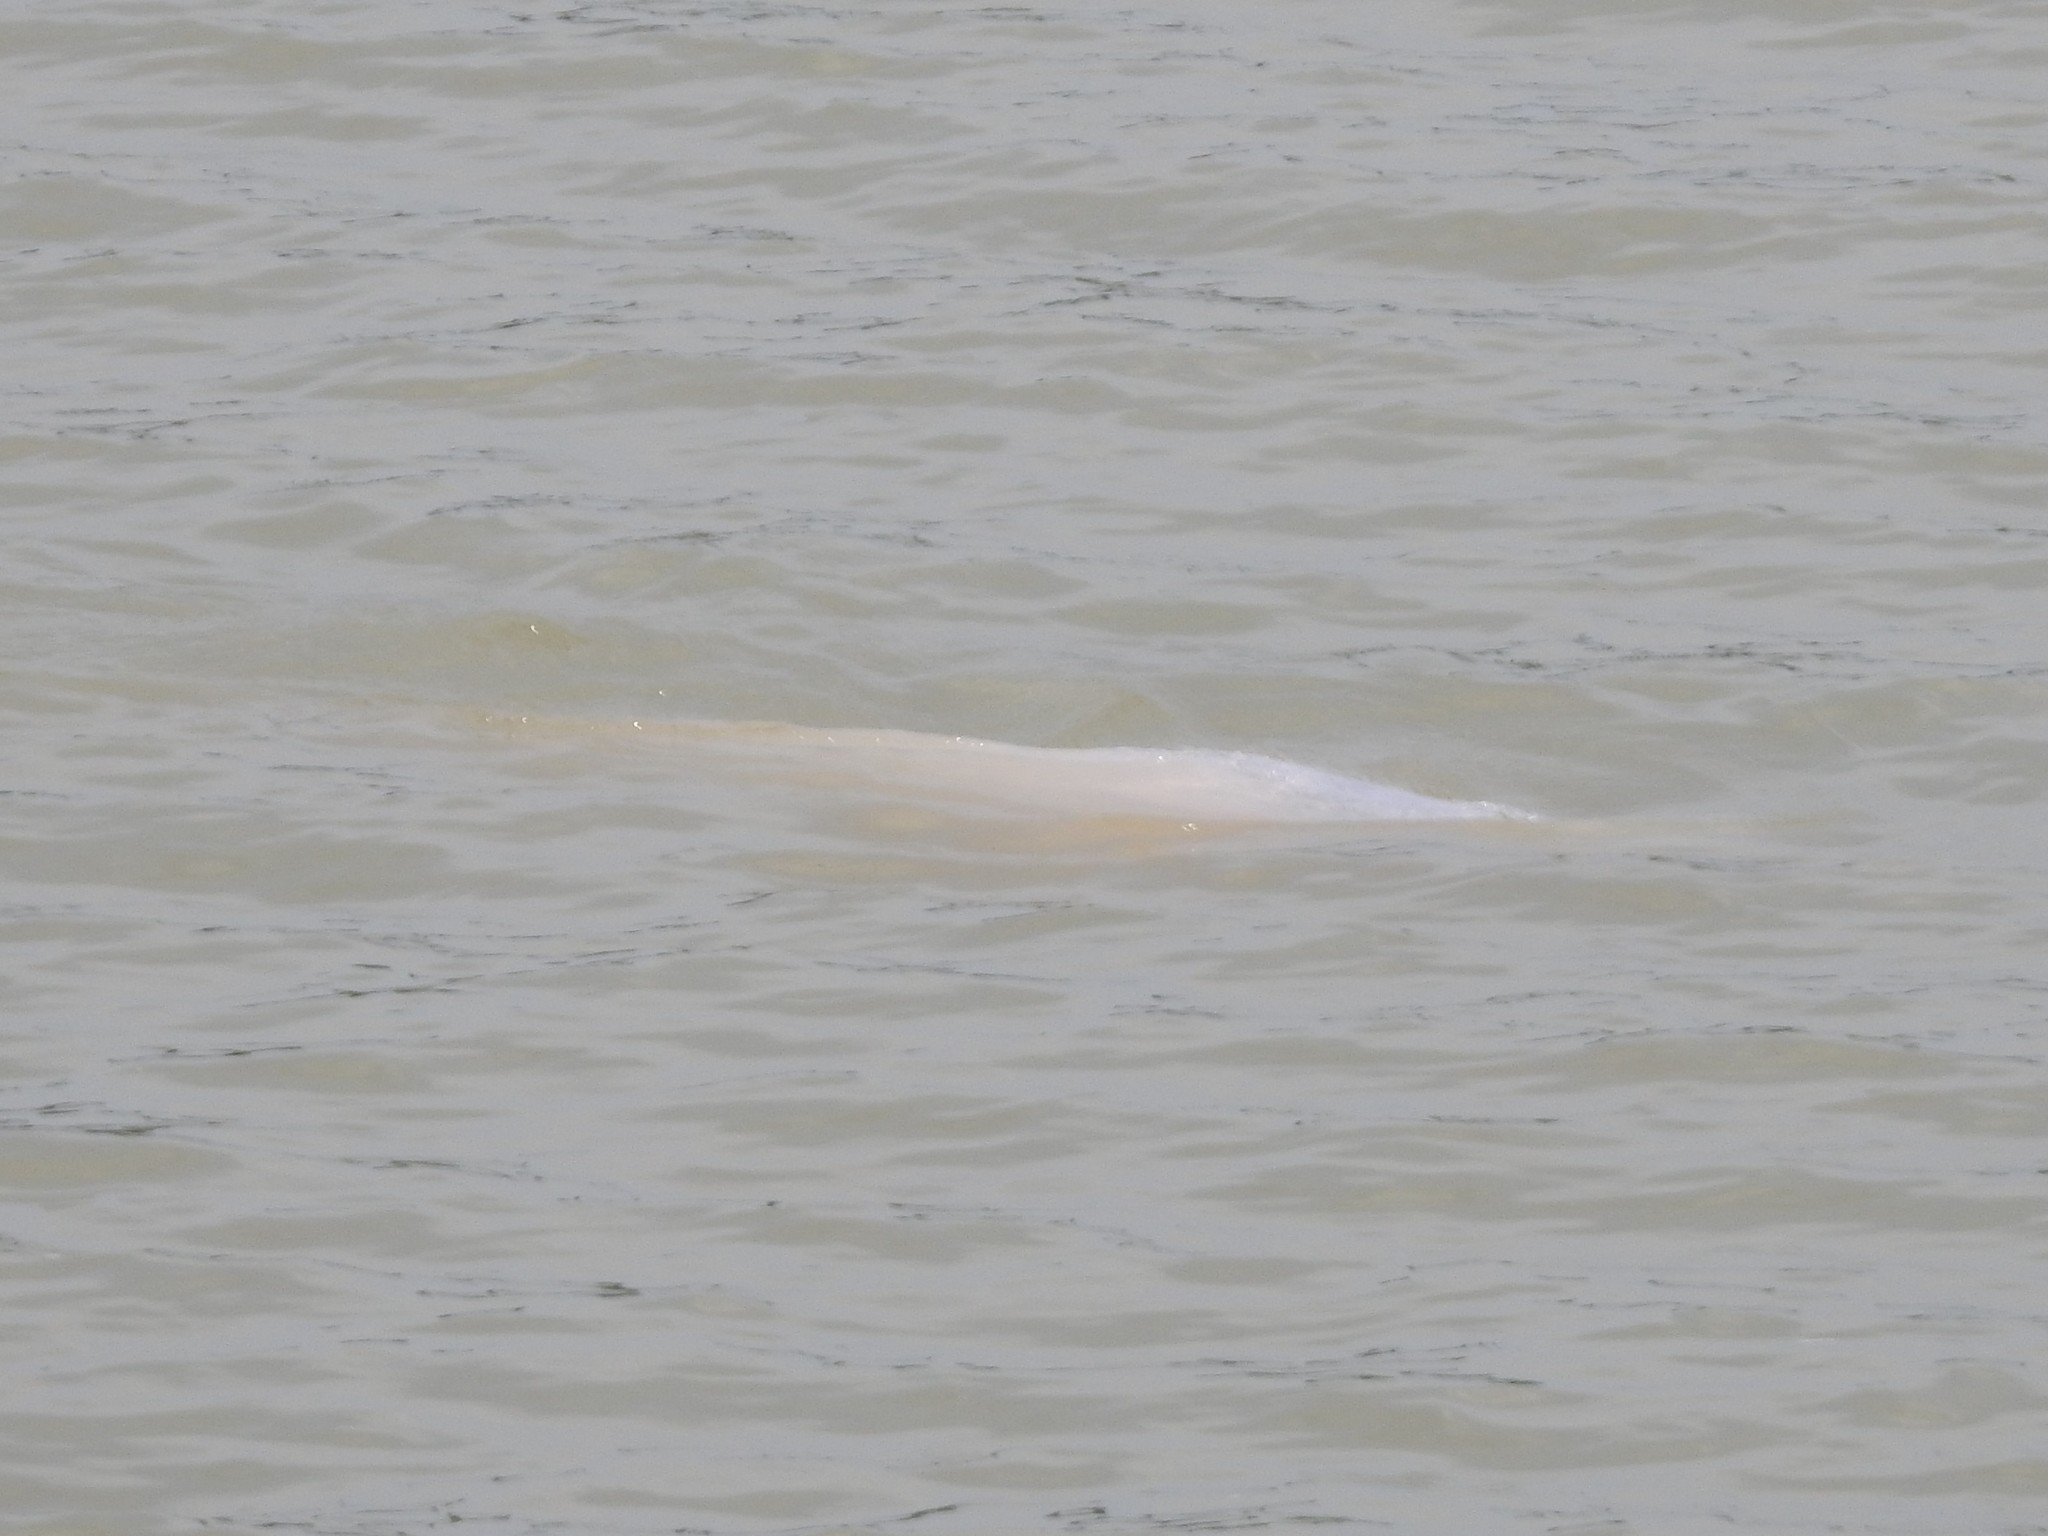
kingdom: Animalia
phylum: Chordata
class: Mammalia
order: Cetacea
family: Iniidae
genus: Inia
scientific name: Inia geoffrensis
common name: Amazon river dolphin
